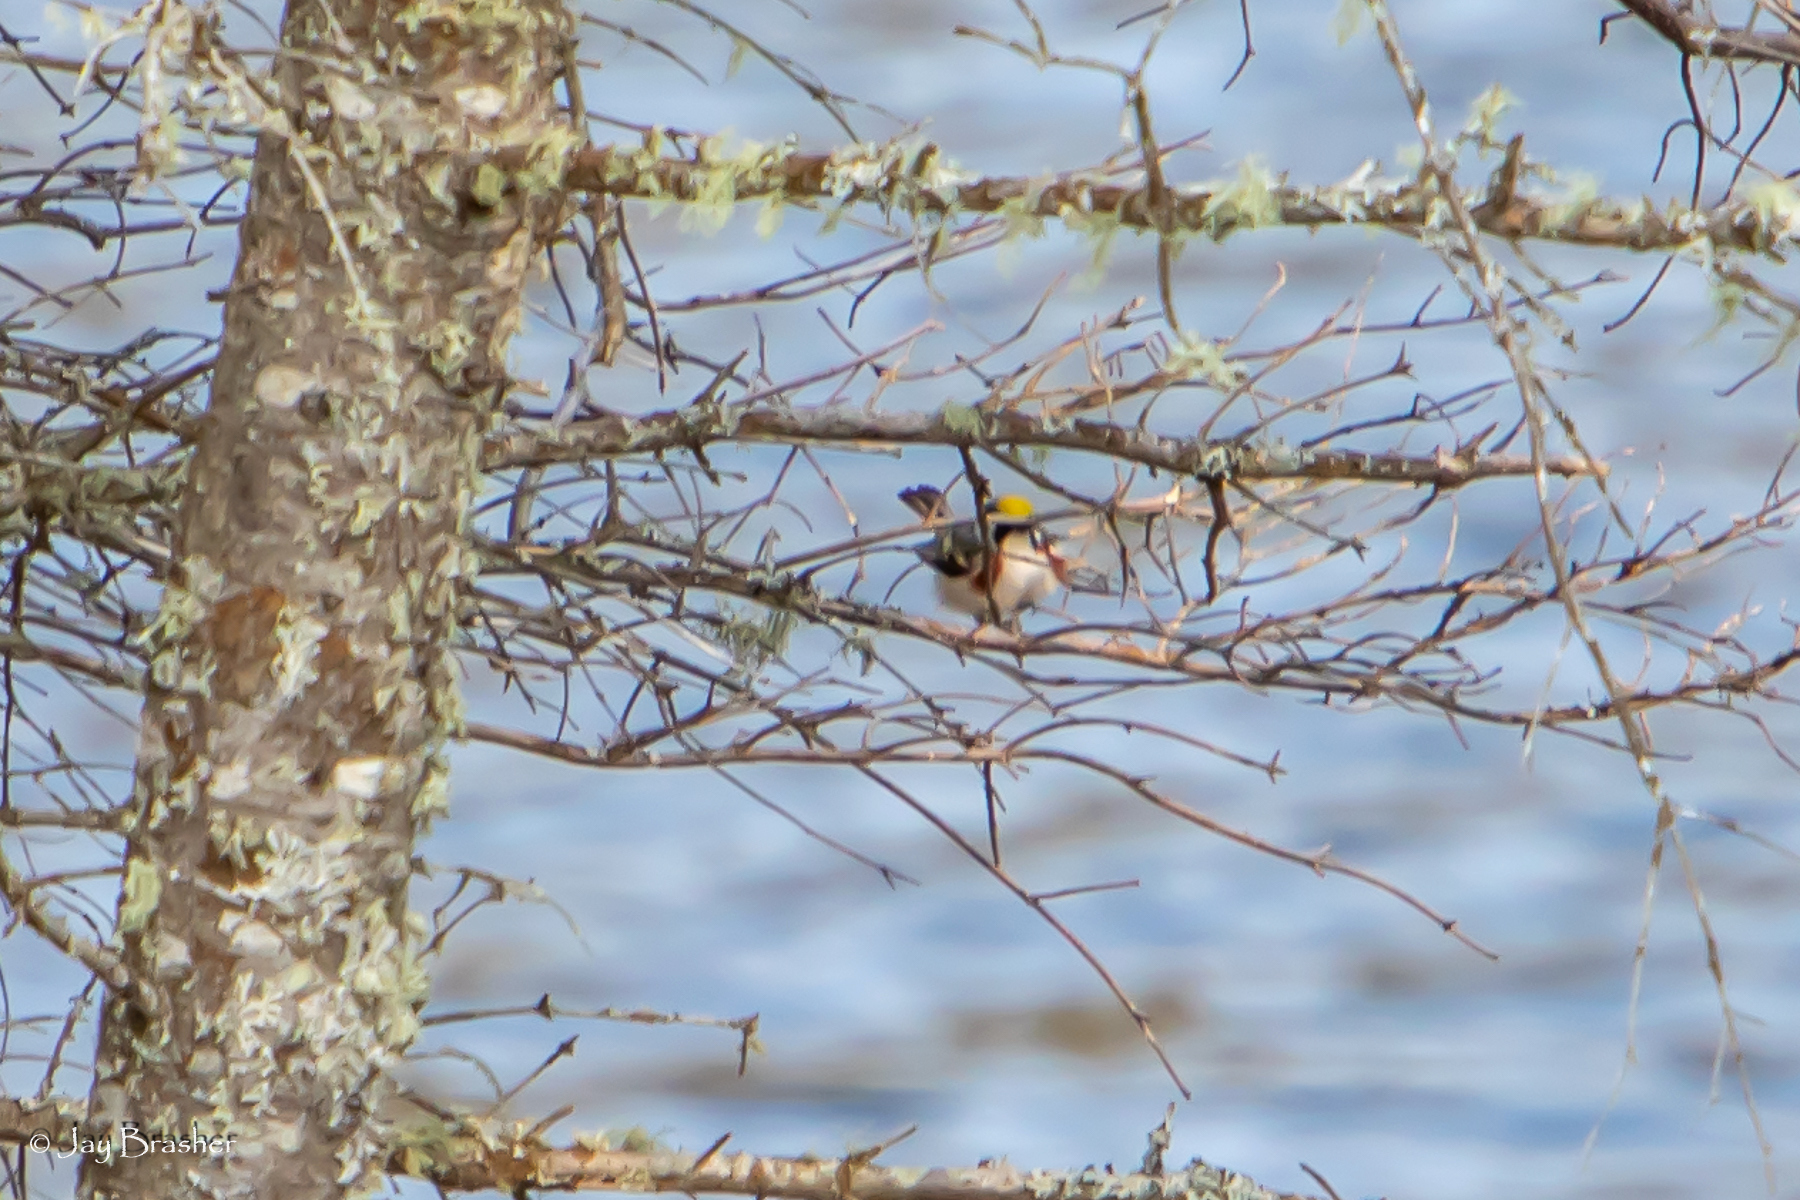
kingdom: Animalia
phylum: Chordata
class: Aves
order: Passeriformes
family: Parulidae
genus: Setophaga
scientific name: Setophaga pensylvanica
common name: Chestnut-sided warbler
